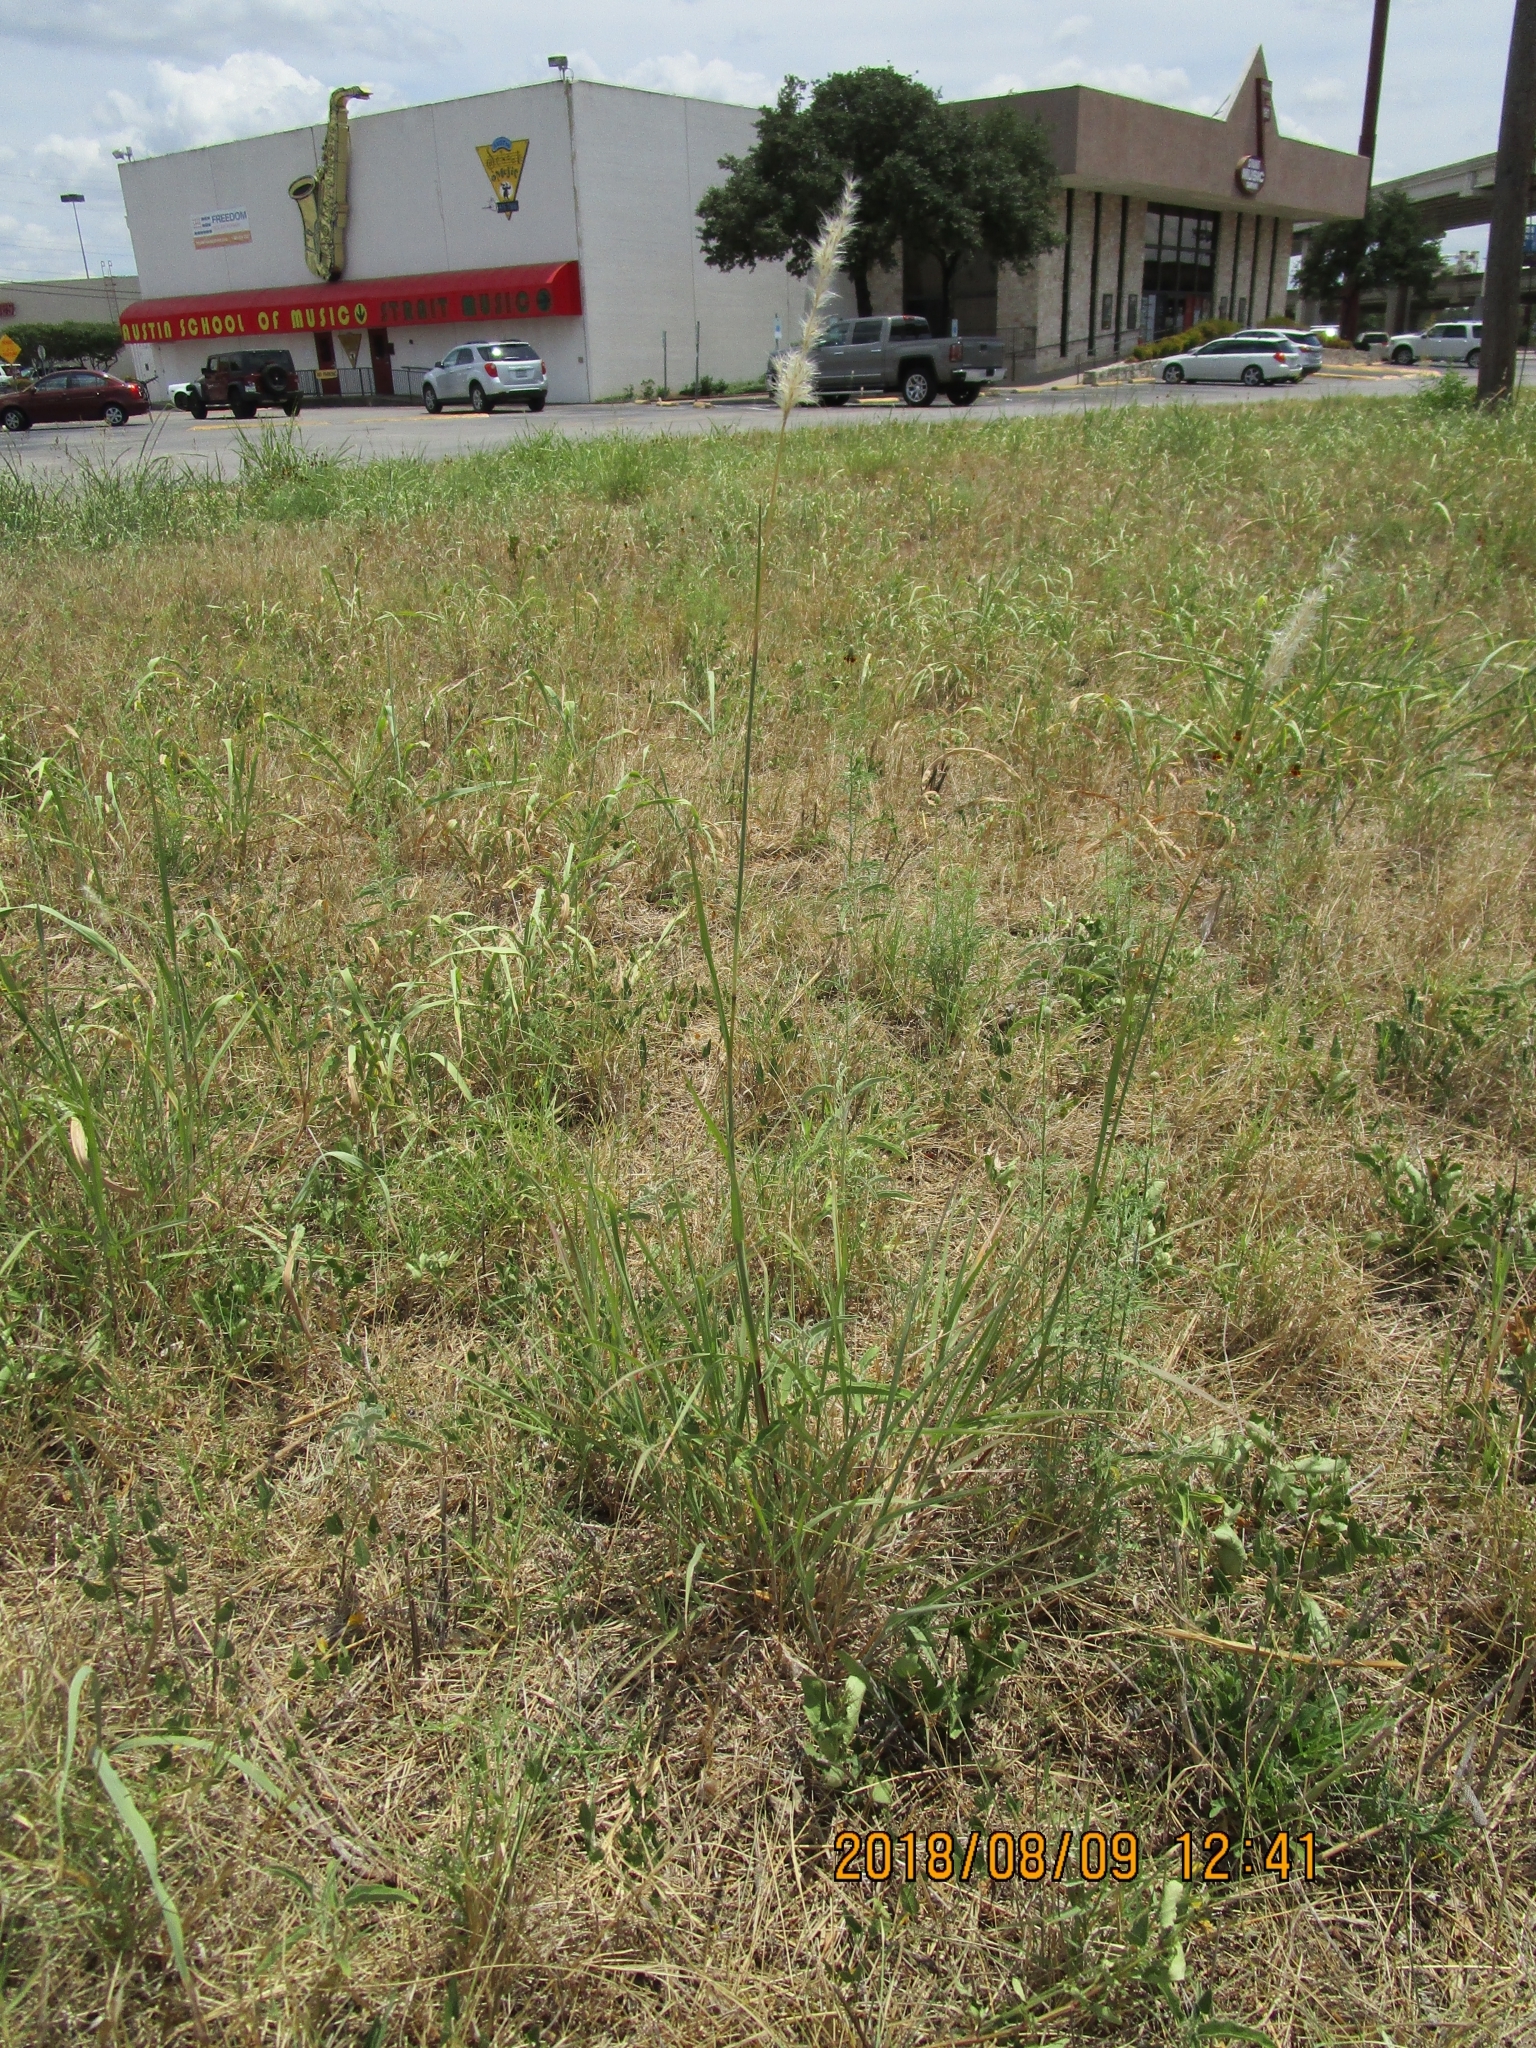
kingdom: Plantae
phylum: Tracheophyta
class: Liliopsida
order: Poales
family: Poaceae
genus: Bothriochloa
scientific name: Bothriochloa torreyana
